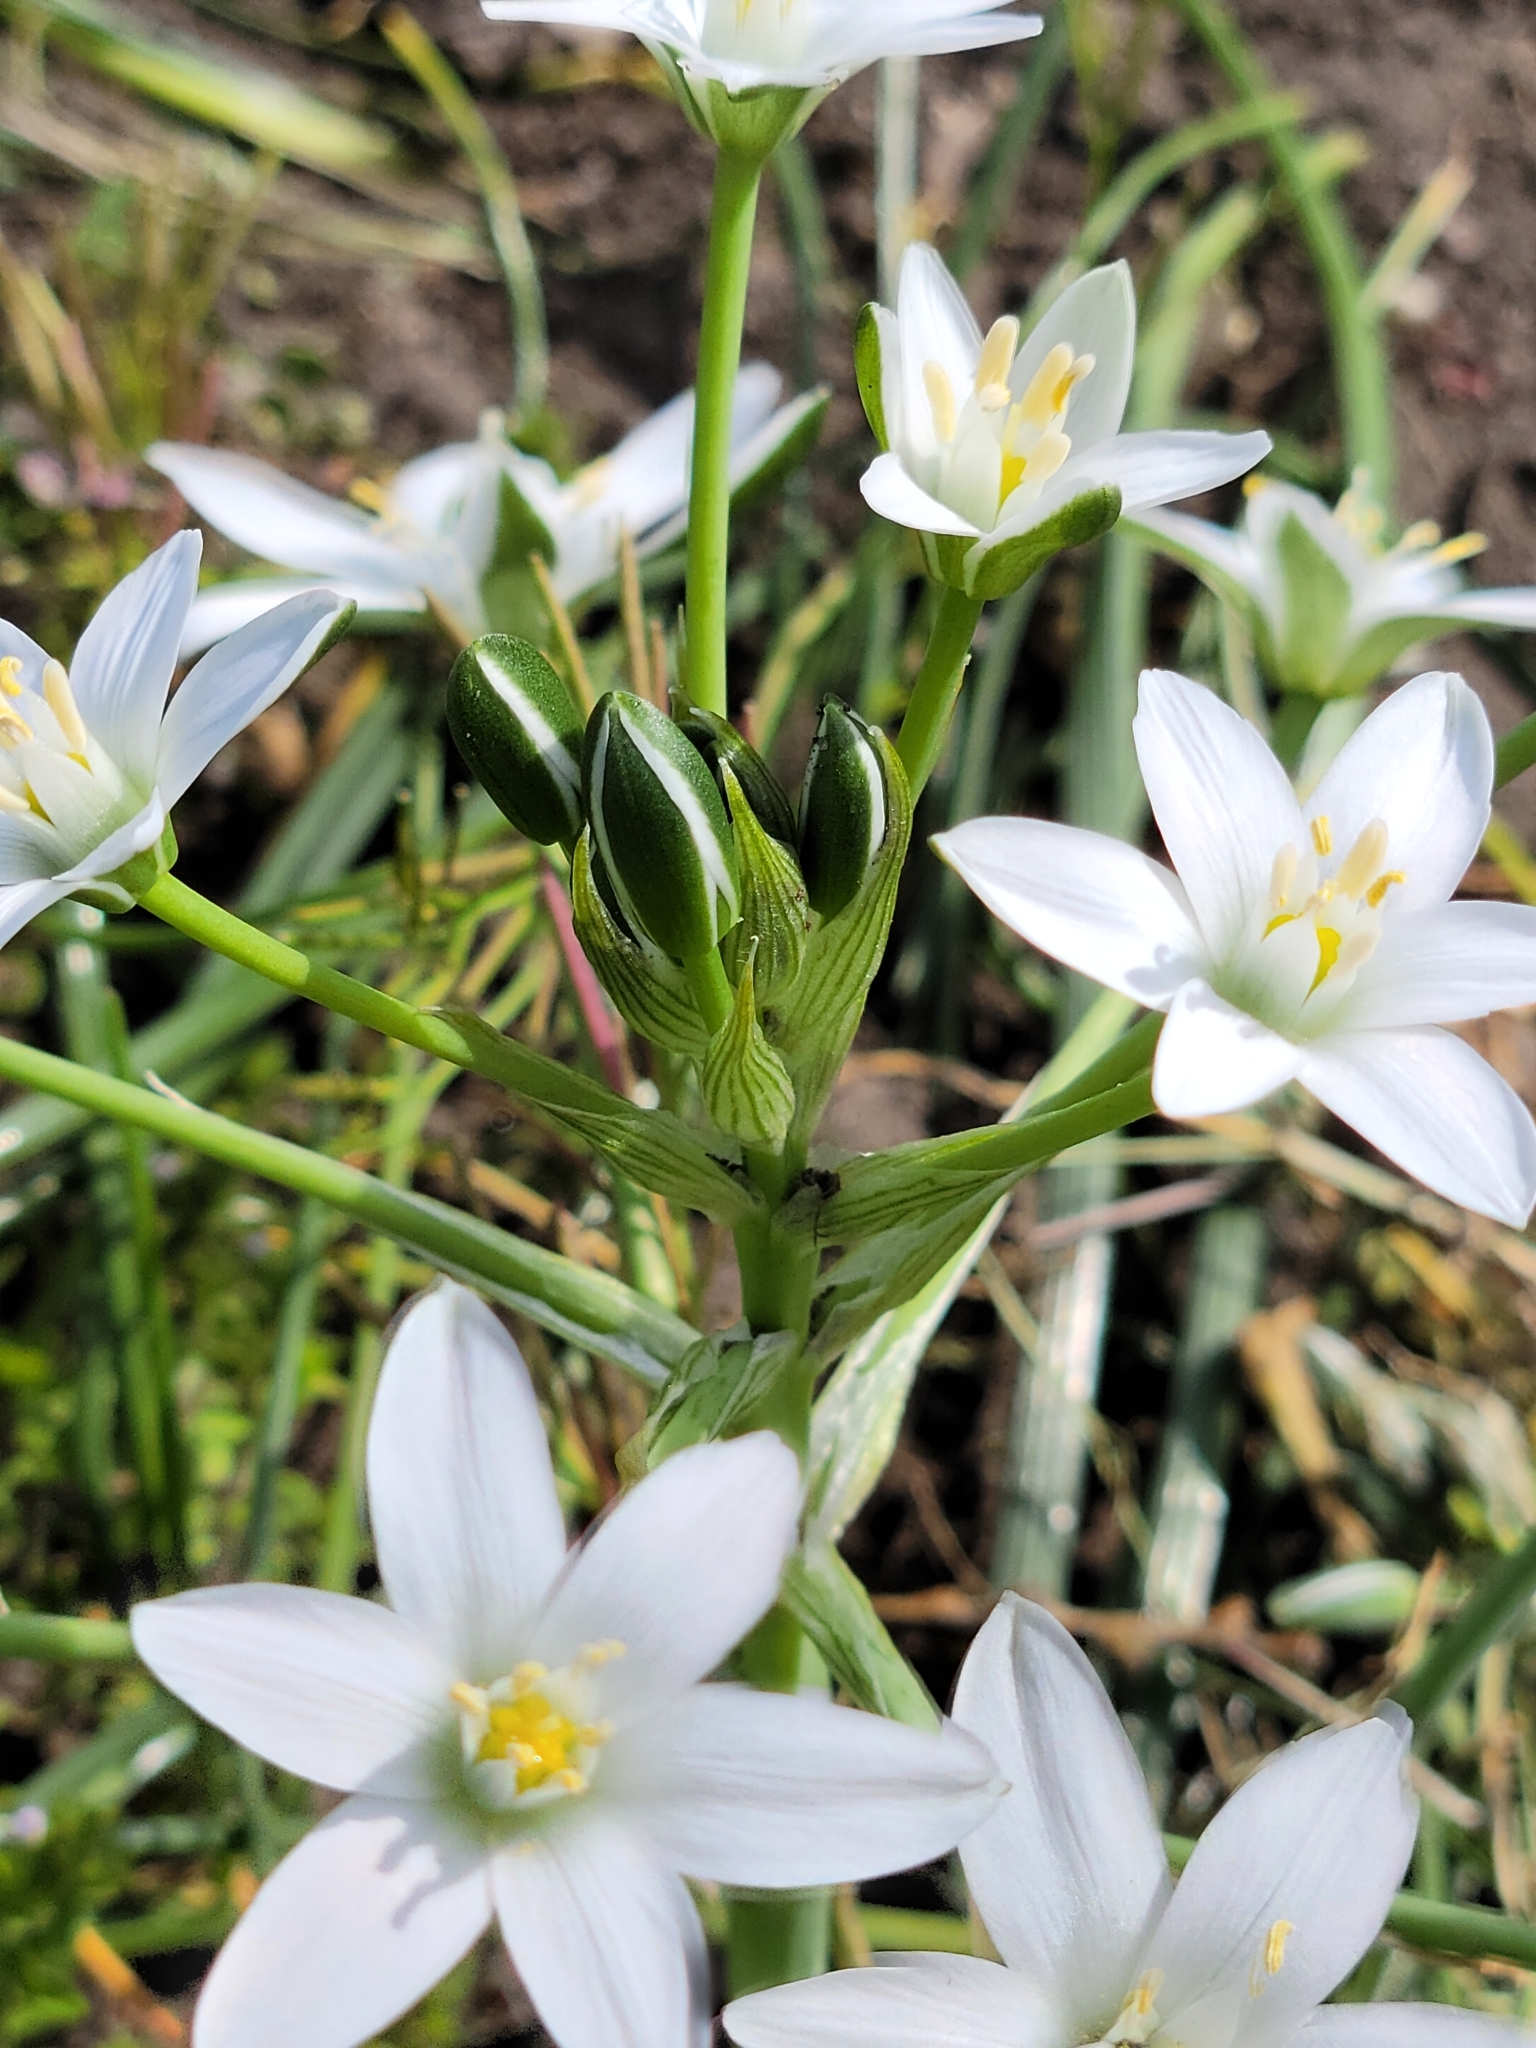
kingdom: Plantae
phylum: Tracheophyta
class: Liliopsida
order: Asparagales
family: Asparagaceae
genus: Ornithogalum
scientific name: Ornithogalum umbellatum
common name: Garden star-of-bethlehem
